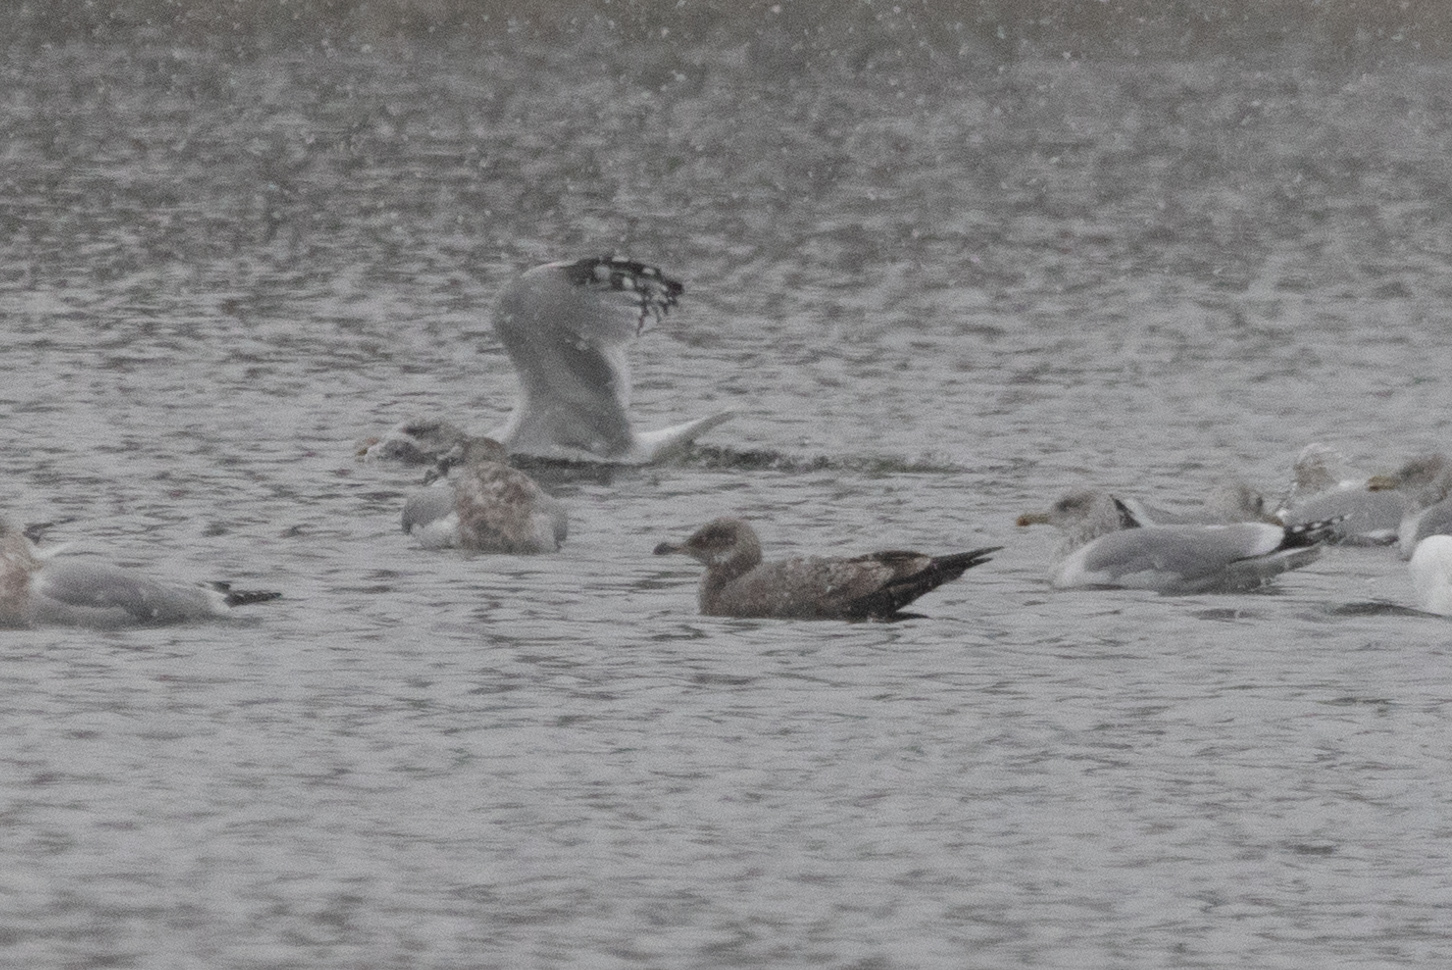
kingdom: Animalia
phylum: Chordata
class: Aves
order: Charadriiformes
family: Laridae
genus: Larus
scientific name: Larus argentatus
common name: Herring gull
